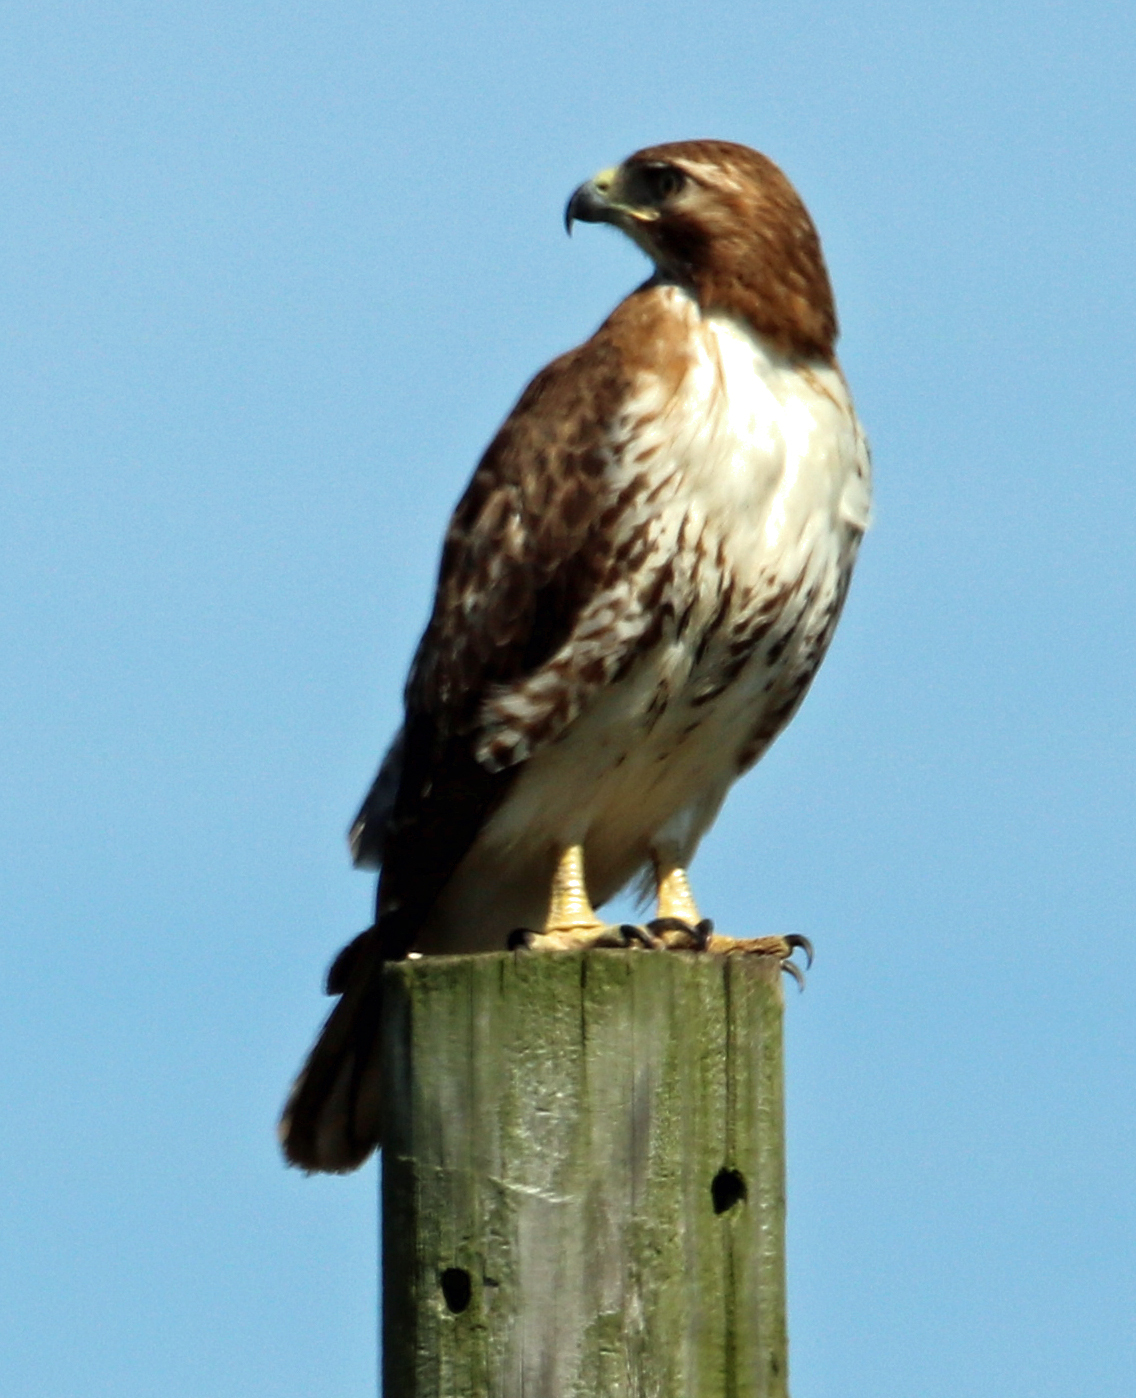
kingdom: Animalia
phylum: Chordata
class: Aves
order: Accipitriformes
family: Accipitridae
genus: Buteo
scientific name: Buteo jamaicensis
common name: Red-tailed hawk
